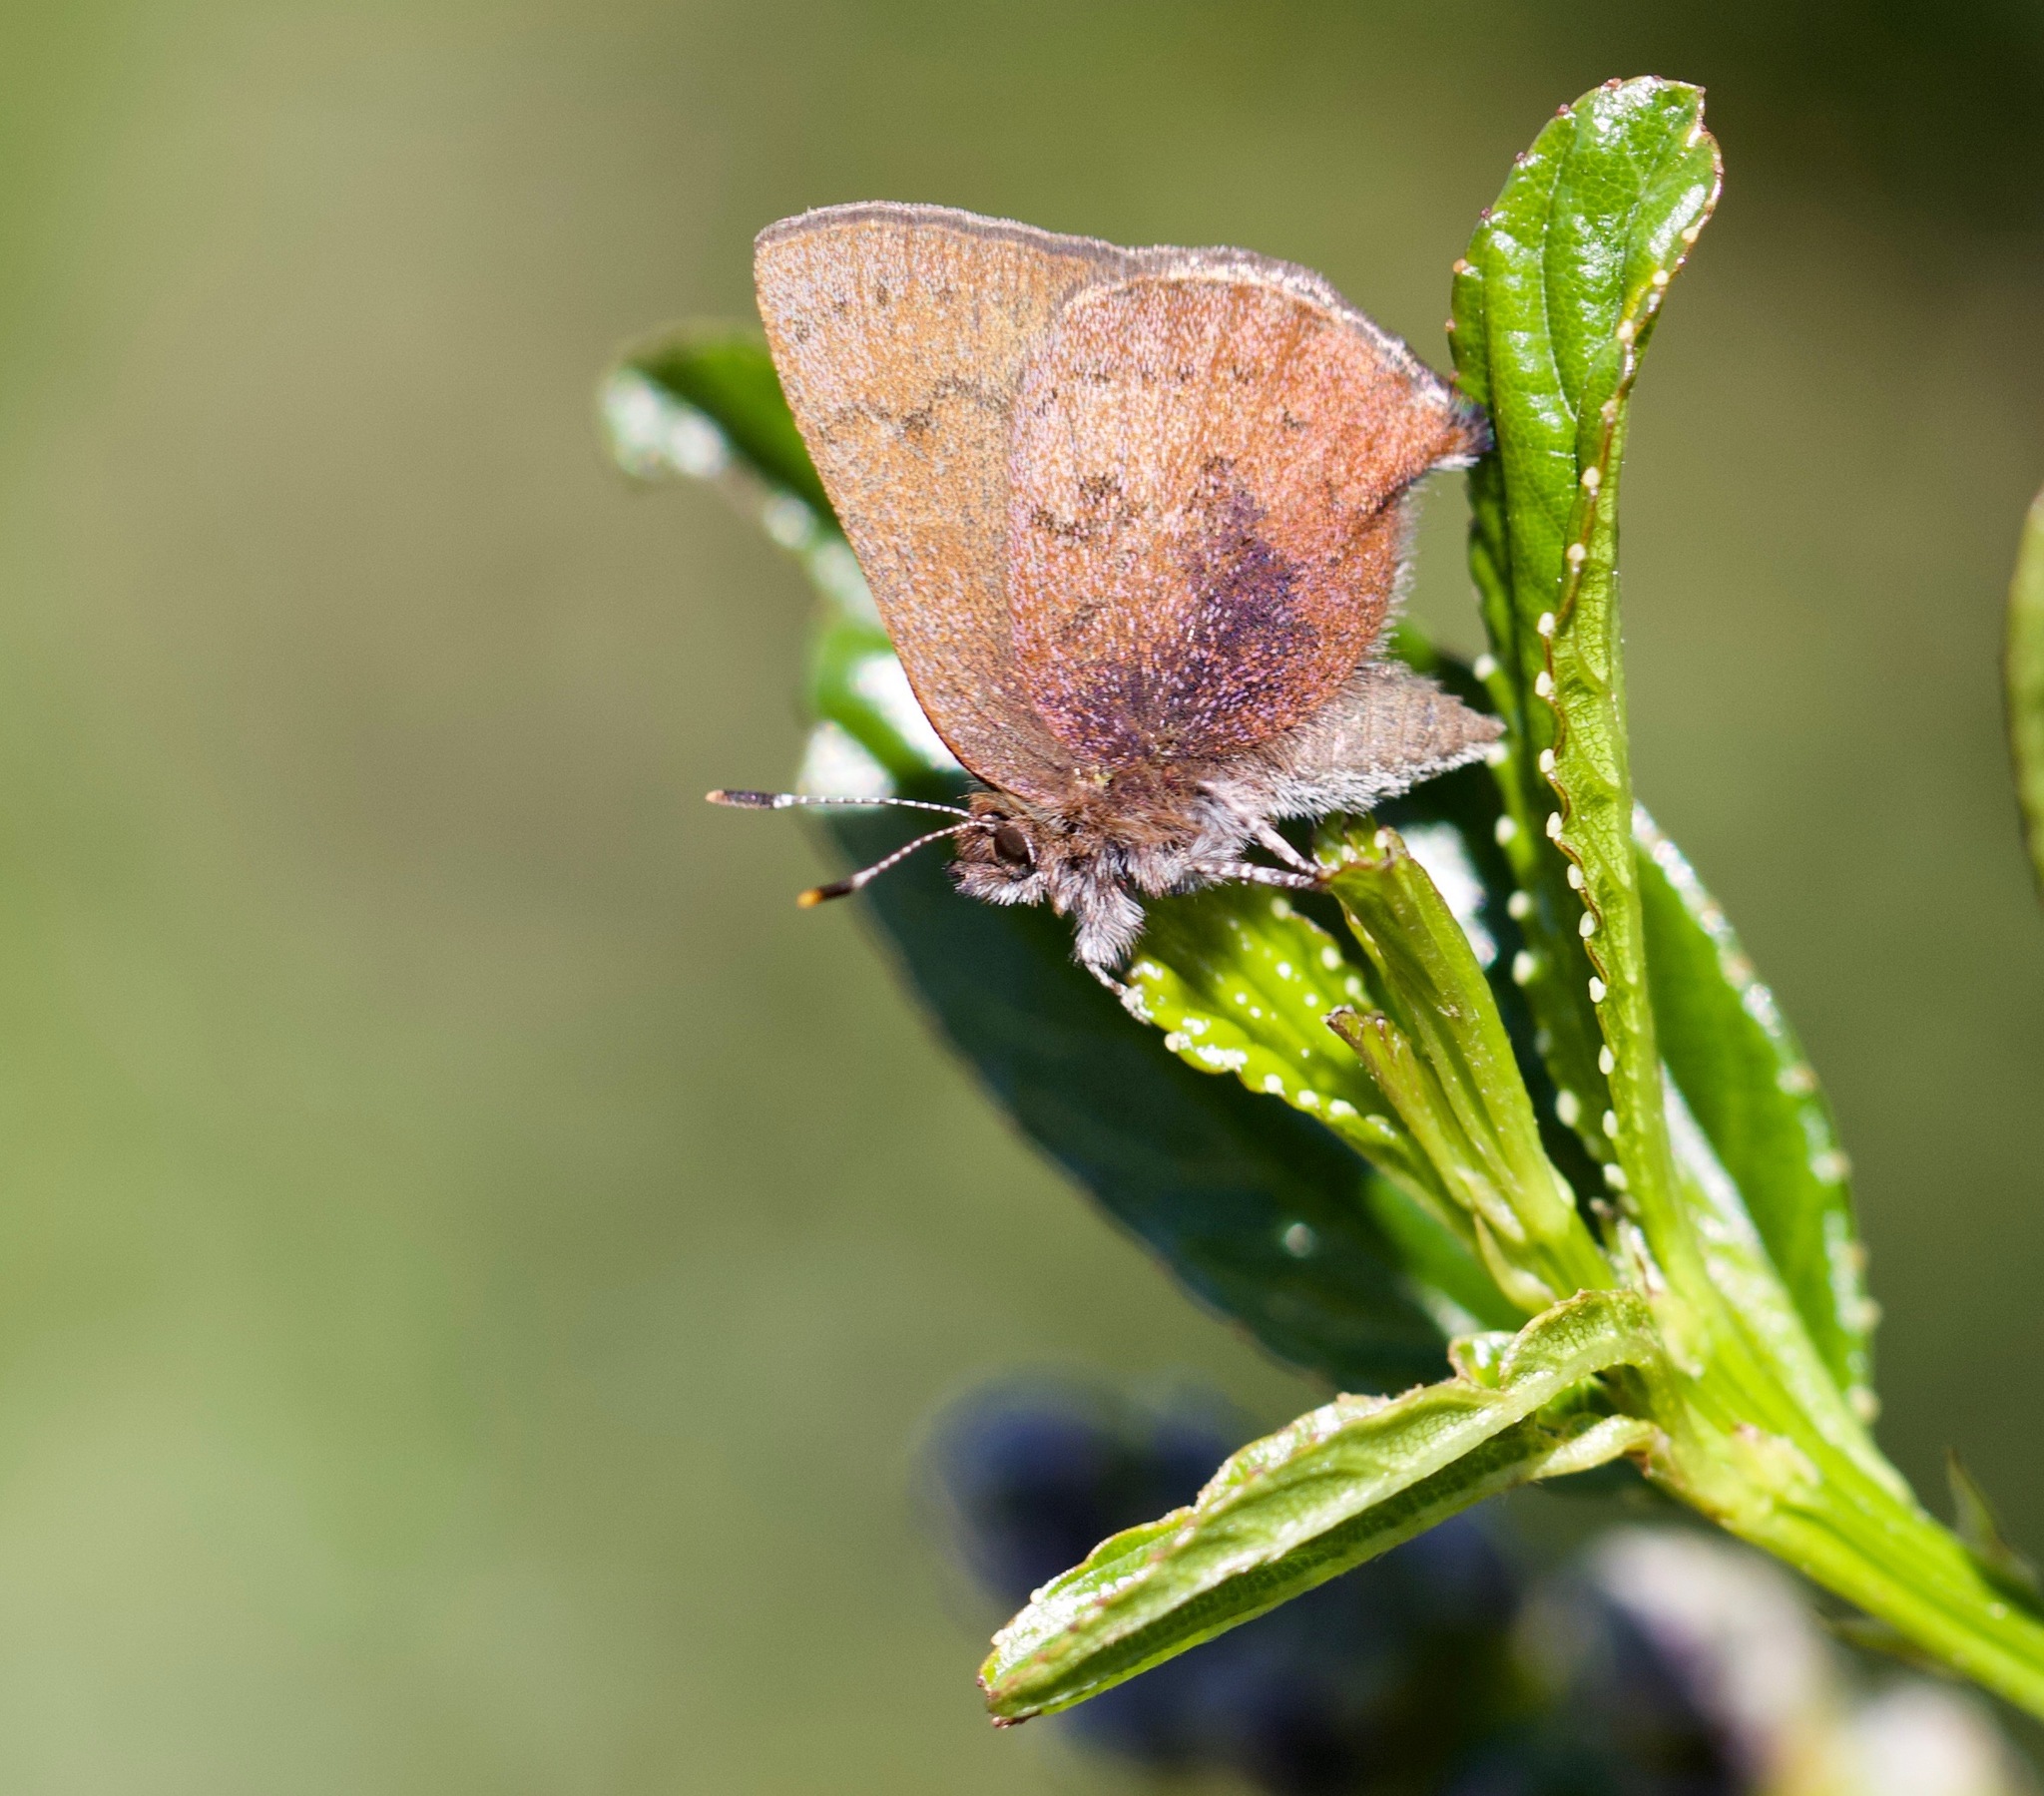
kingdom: Animalia
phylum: Arthropoda
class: Insecta
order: Lepidoptera
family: Lycaenidae
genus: Incisalia
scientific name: Incisalia irioides
